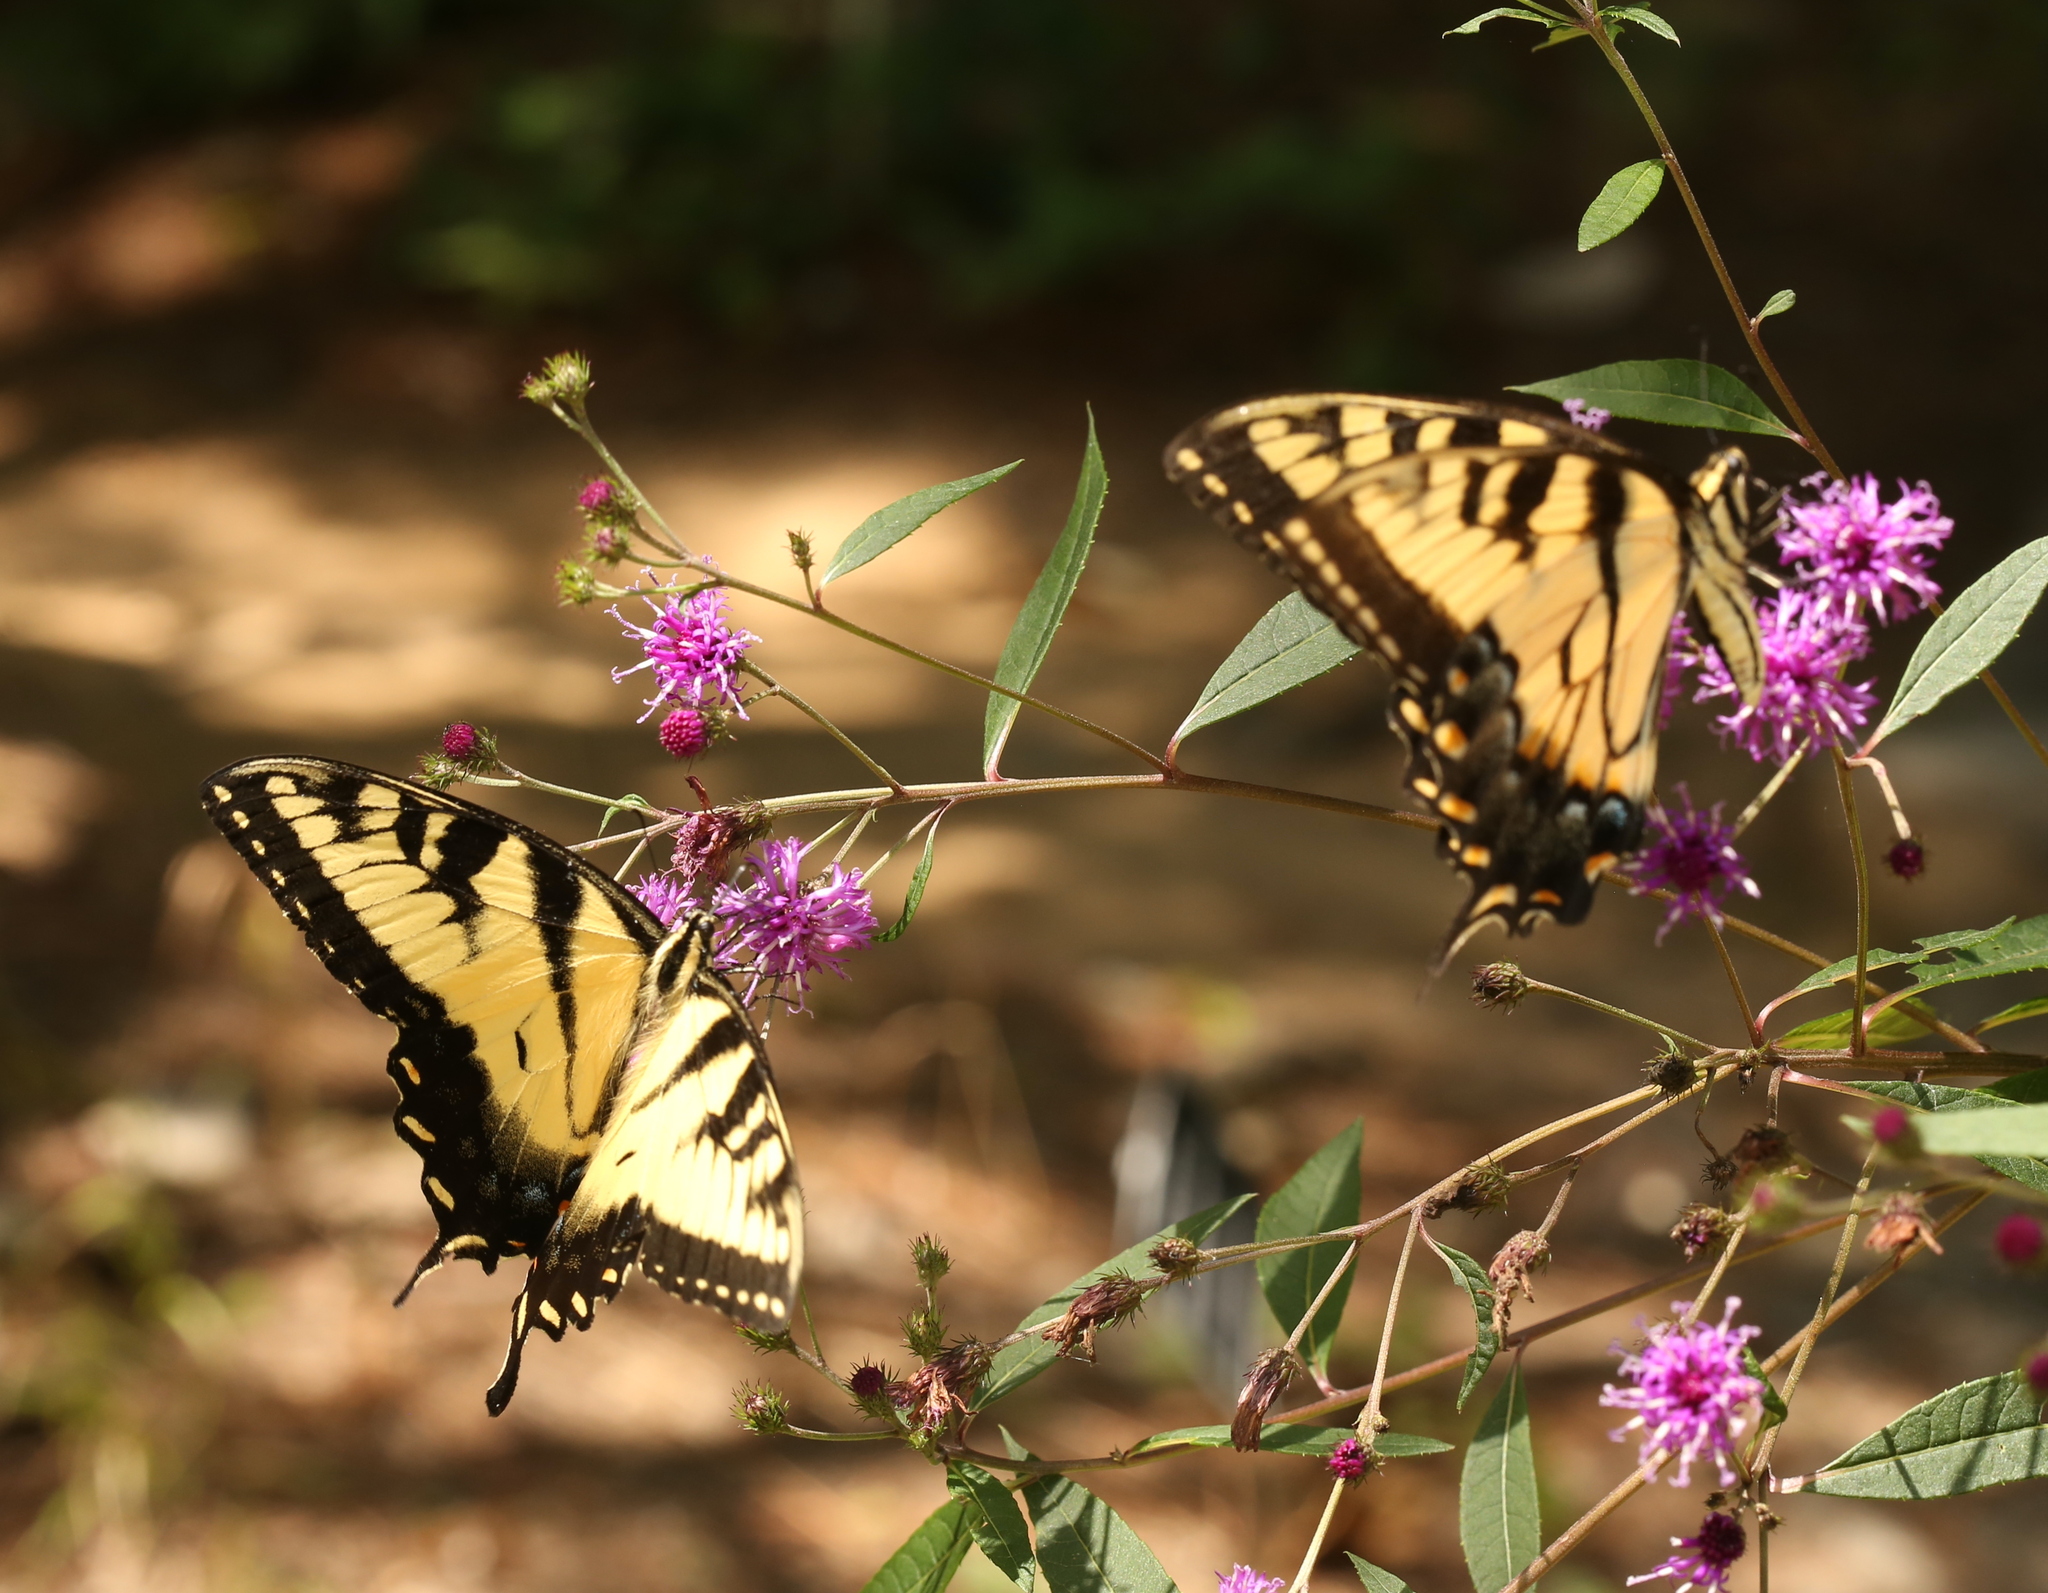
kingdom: Animalia
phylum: Arthropoda
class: Insecta
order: Lepidoptera
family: Papilionidae
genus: Papilio
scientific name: Papilio glaucus
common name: Tiger swallowtail
